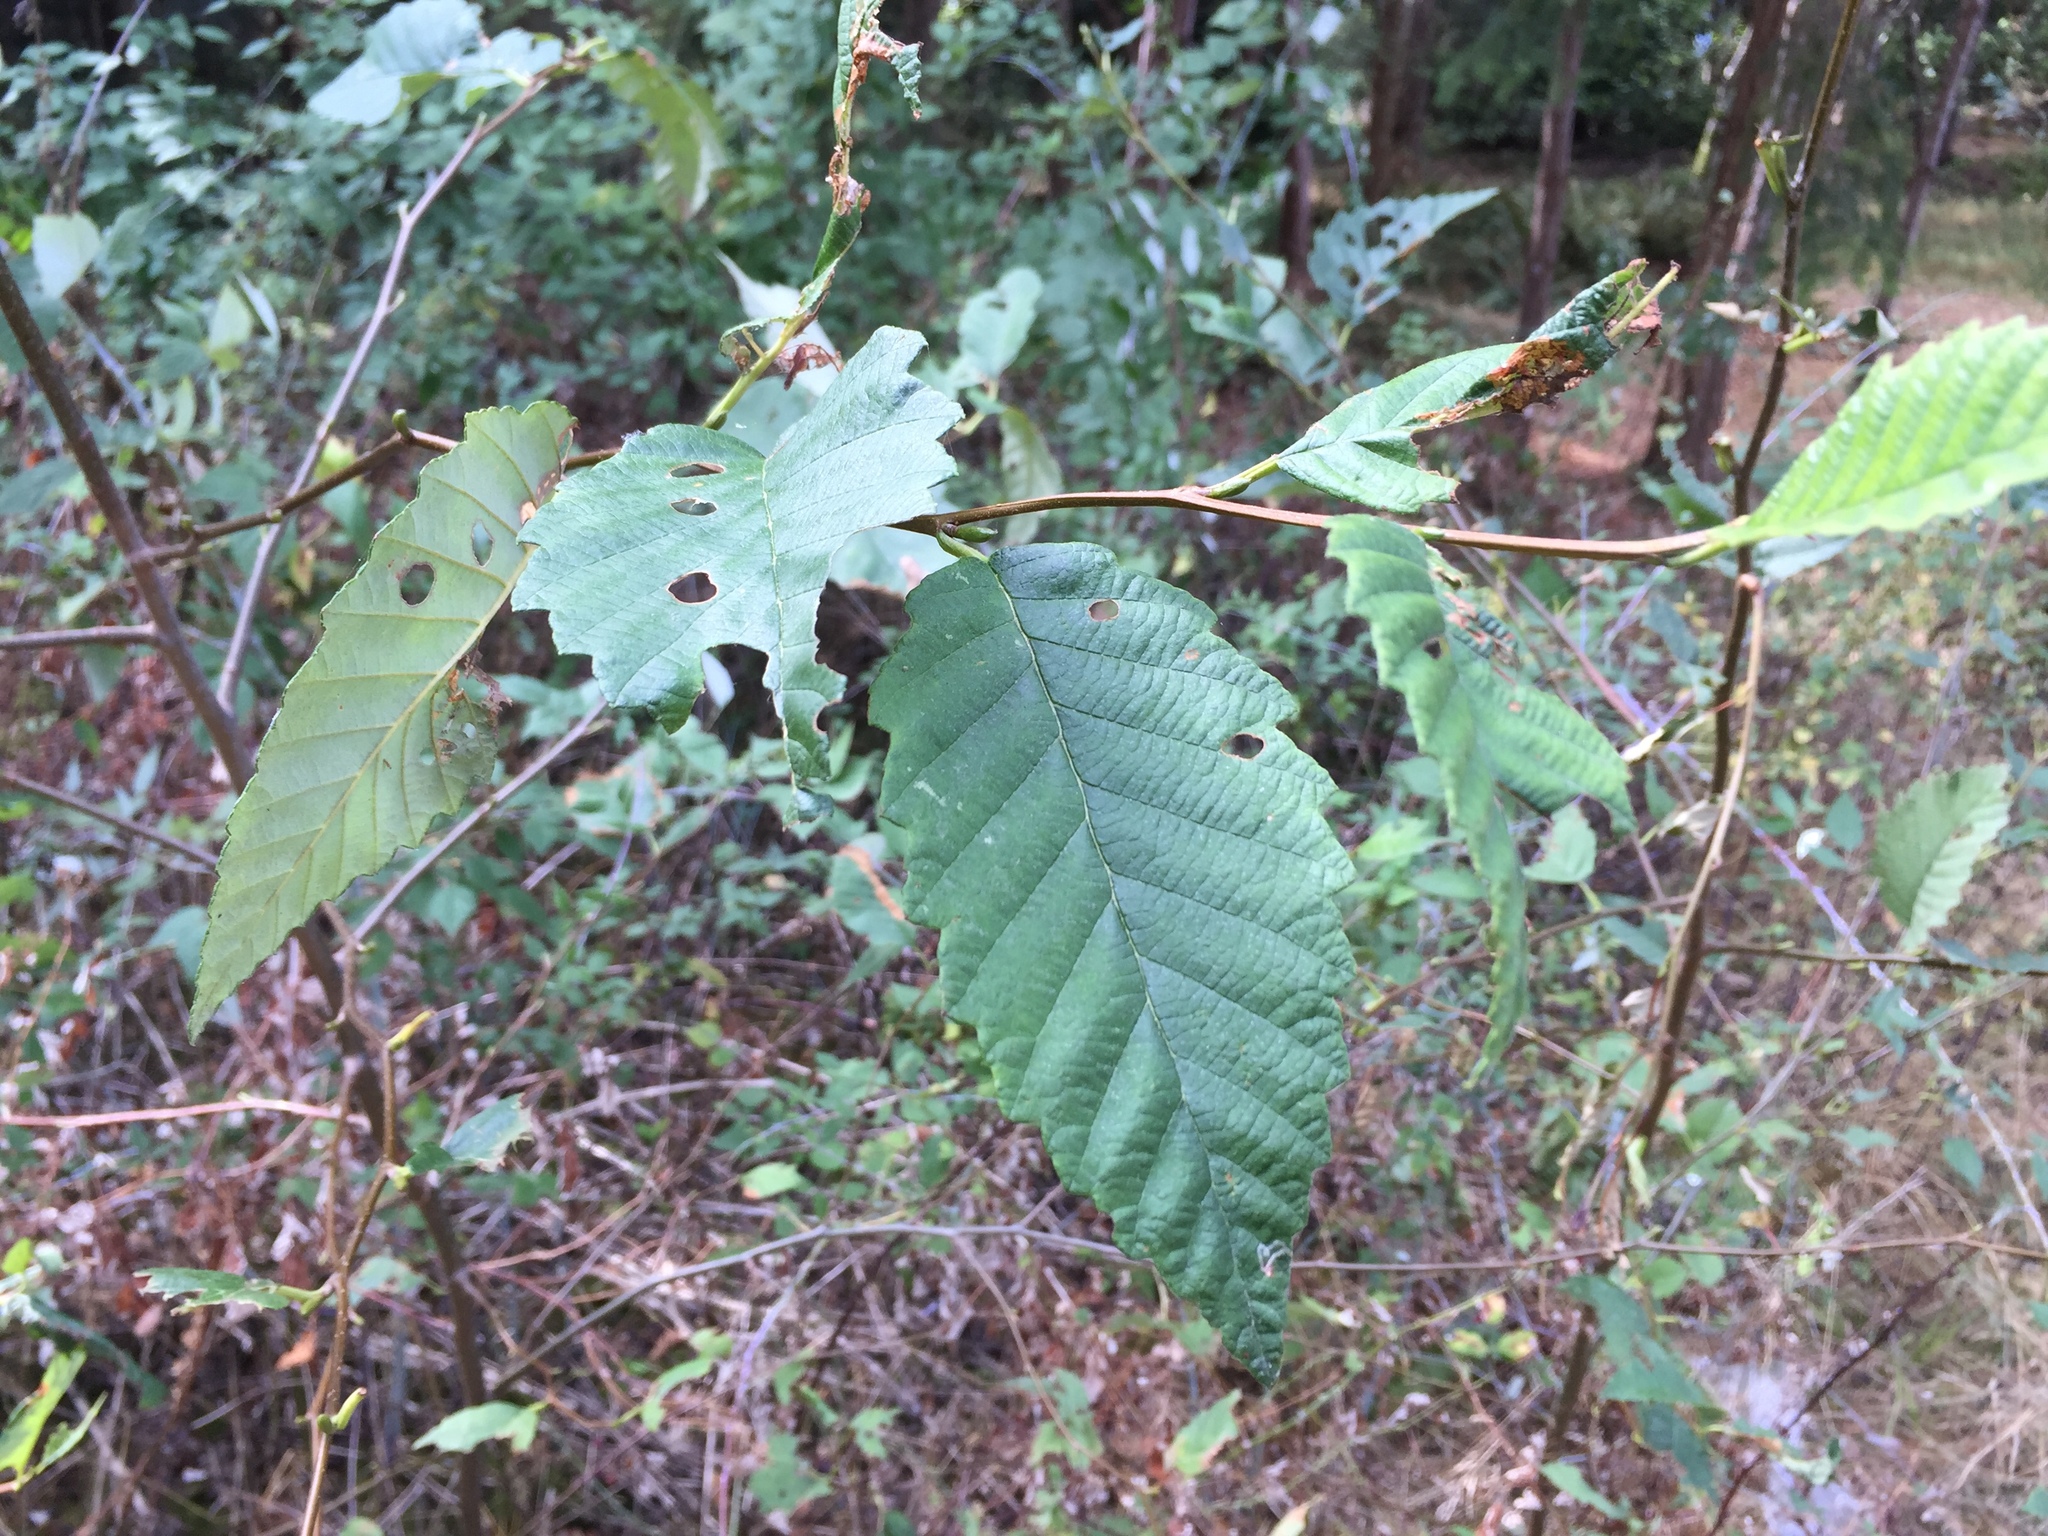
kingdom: Plantae
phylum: Tracheophyta
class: Magnoliopsida
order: Fagales
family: Betulaceae
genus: Alnus
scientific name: Alnus rubra
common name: Red alder
